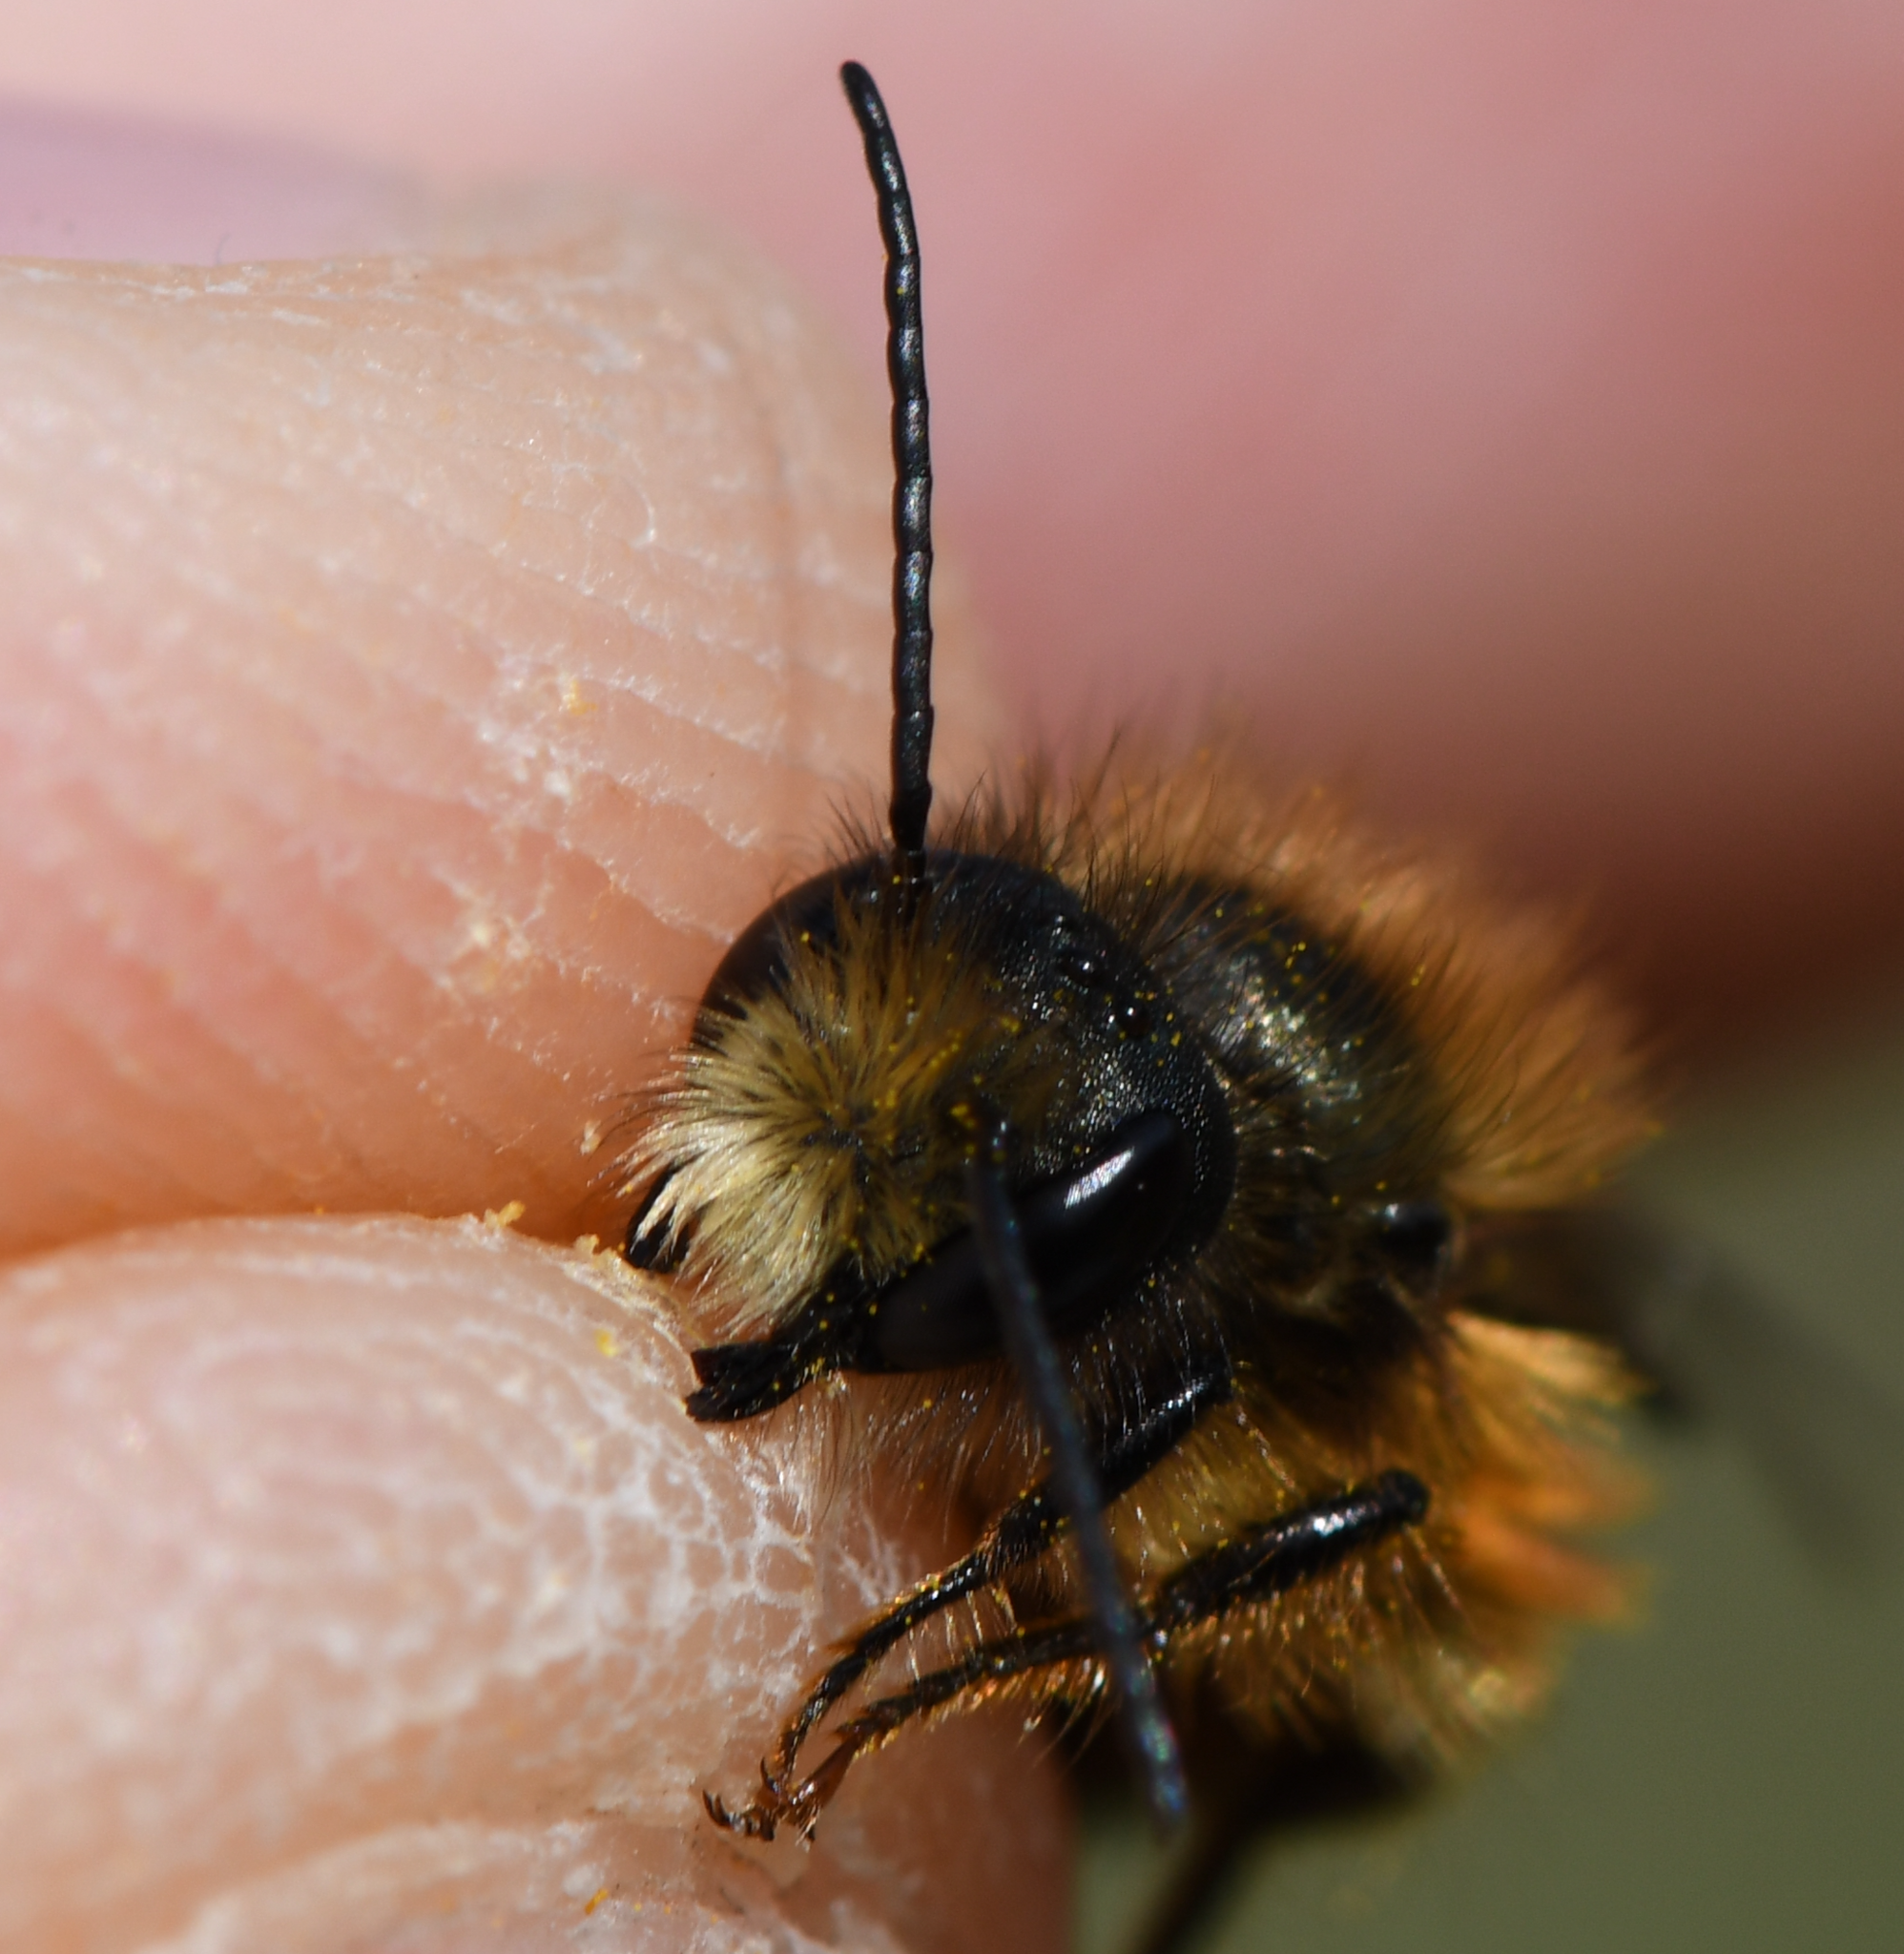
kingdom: Animalia
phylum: Arthropoda
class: Insecta
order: Hymenoptera
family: Megachilidae
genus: Osmia
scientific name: Osmia bicornis
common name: Red mason bee
